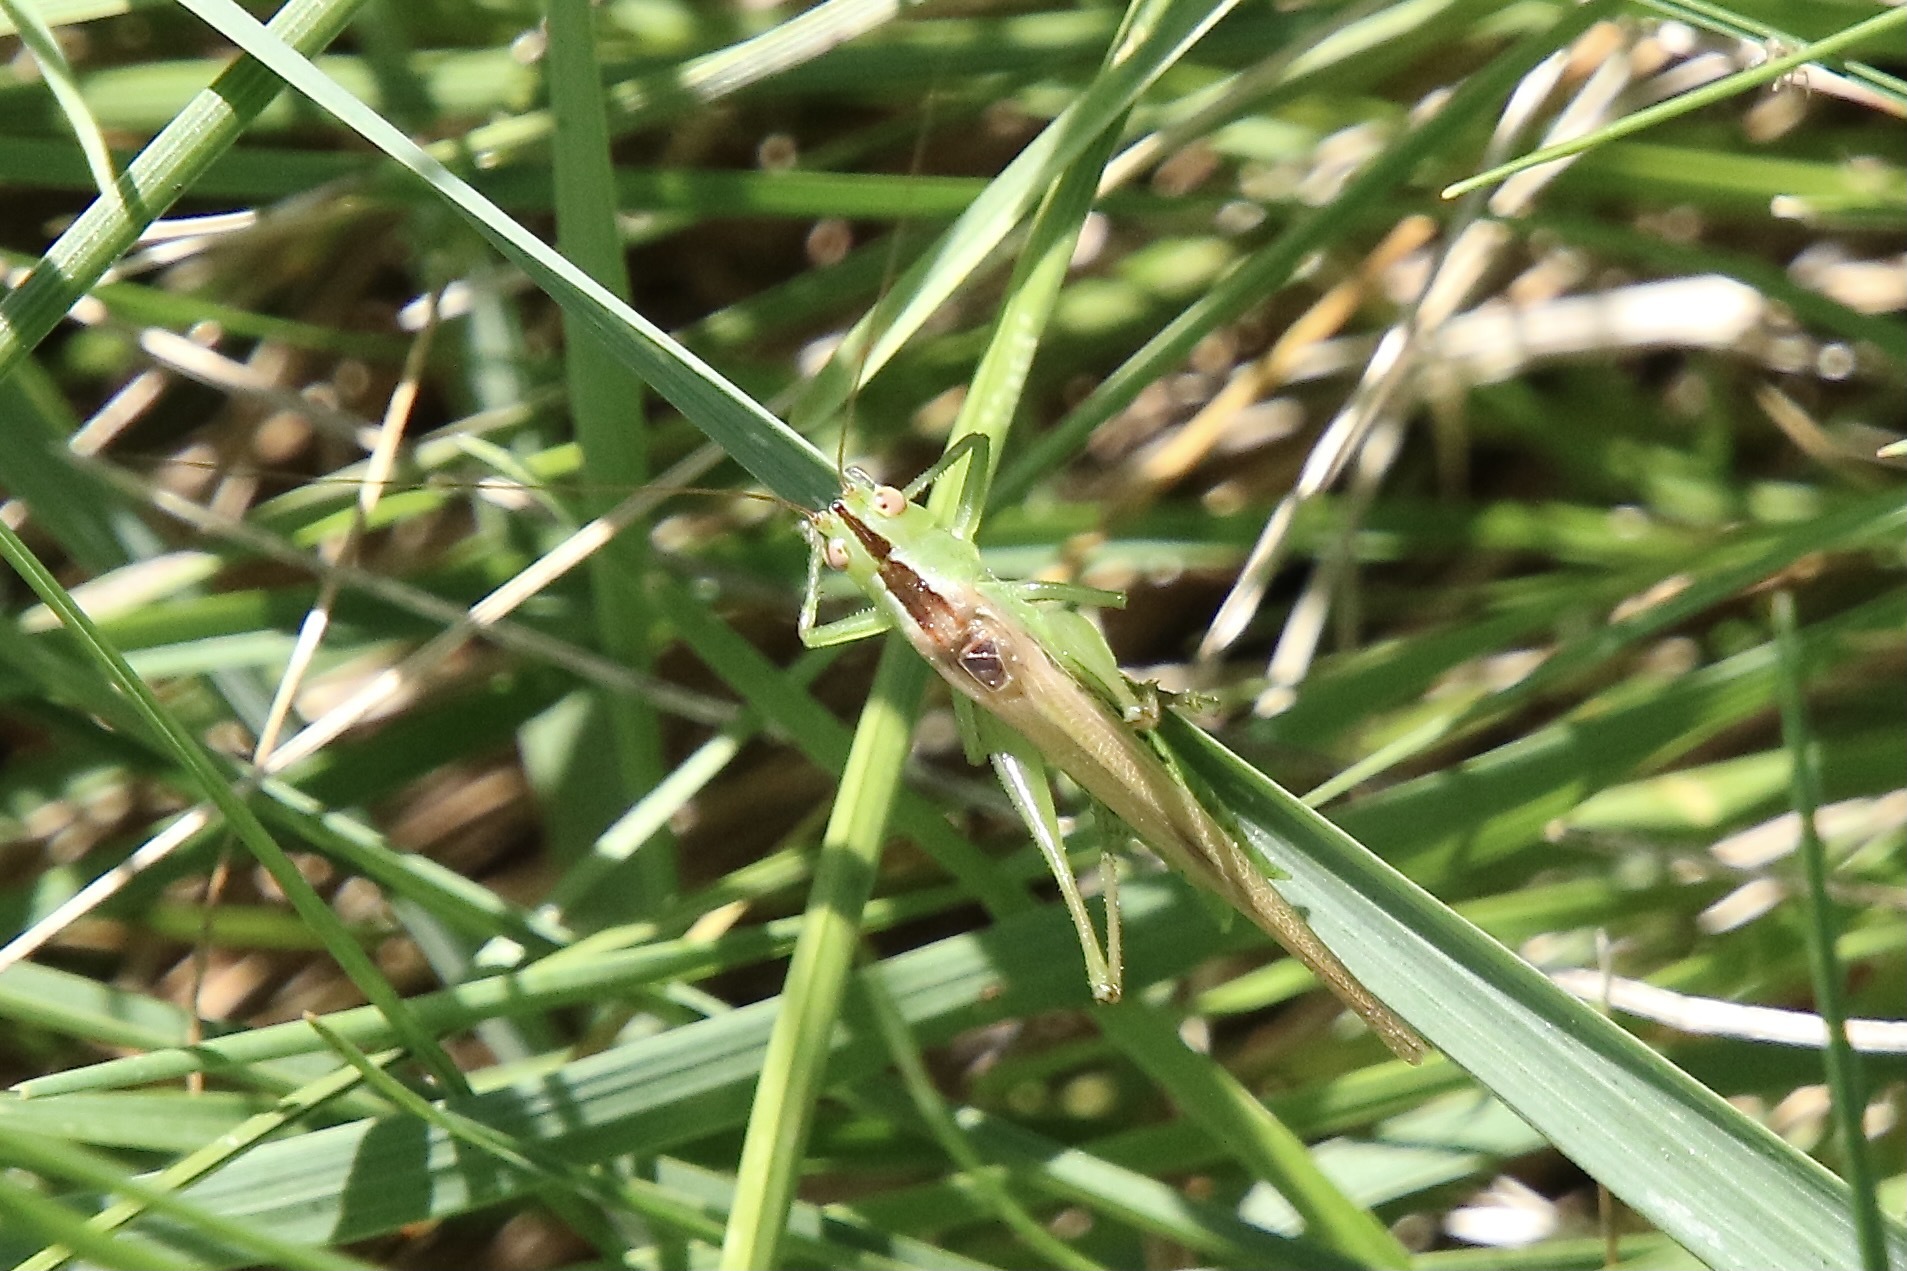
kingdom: Animalia
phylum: Arthropoda
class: Insecta
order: Orthoptera
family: Tettigoniidae
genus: Conocephalus
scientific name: Conocephalus fasciatus
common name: Slender meadow katydid
